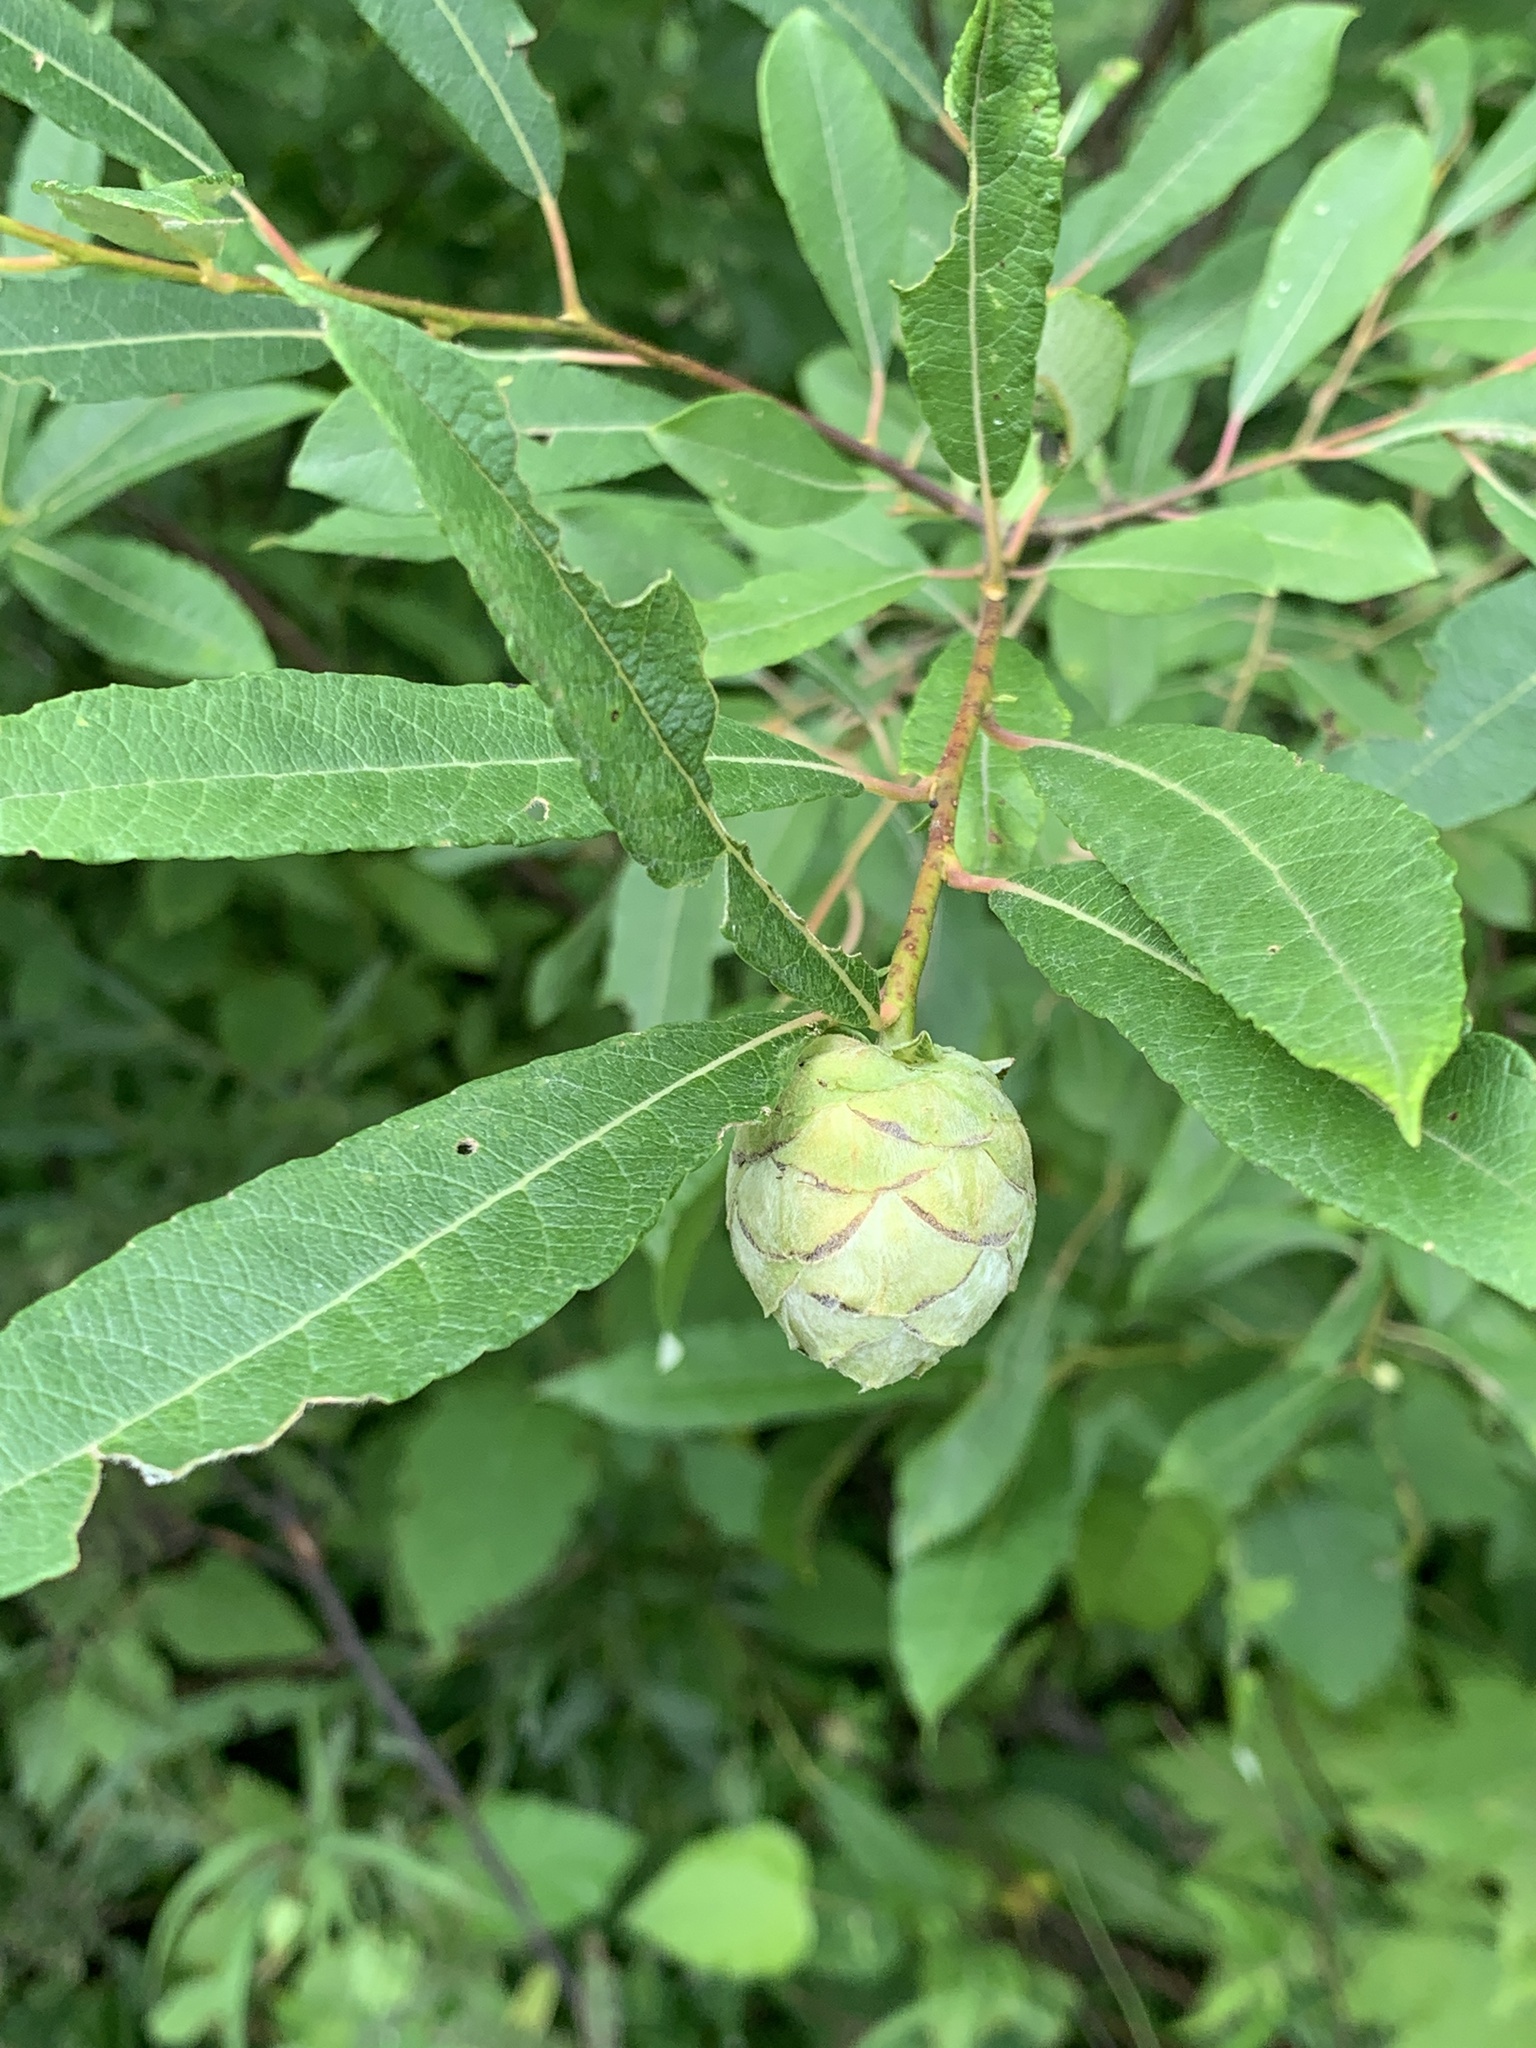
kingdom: Animalia
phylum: Arthropoda
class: Insecta
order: Diptera
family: Cecidomyiidae
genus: Rabdophaga
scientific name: Rabdophaga strobiloides
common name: Willow pinecone gall midge
